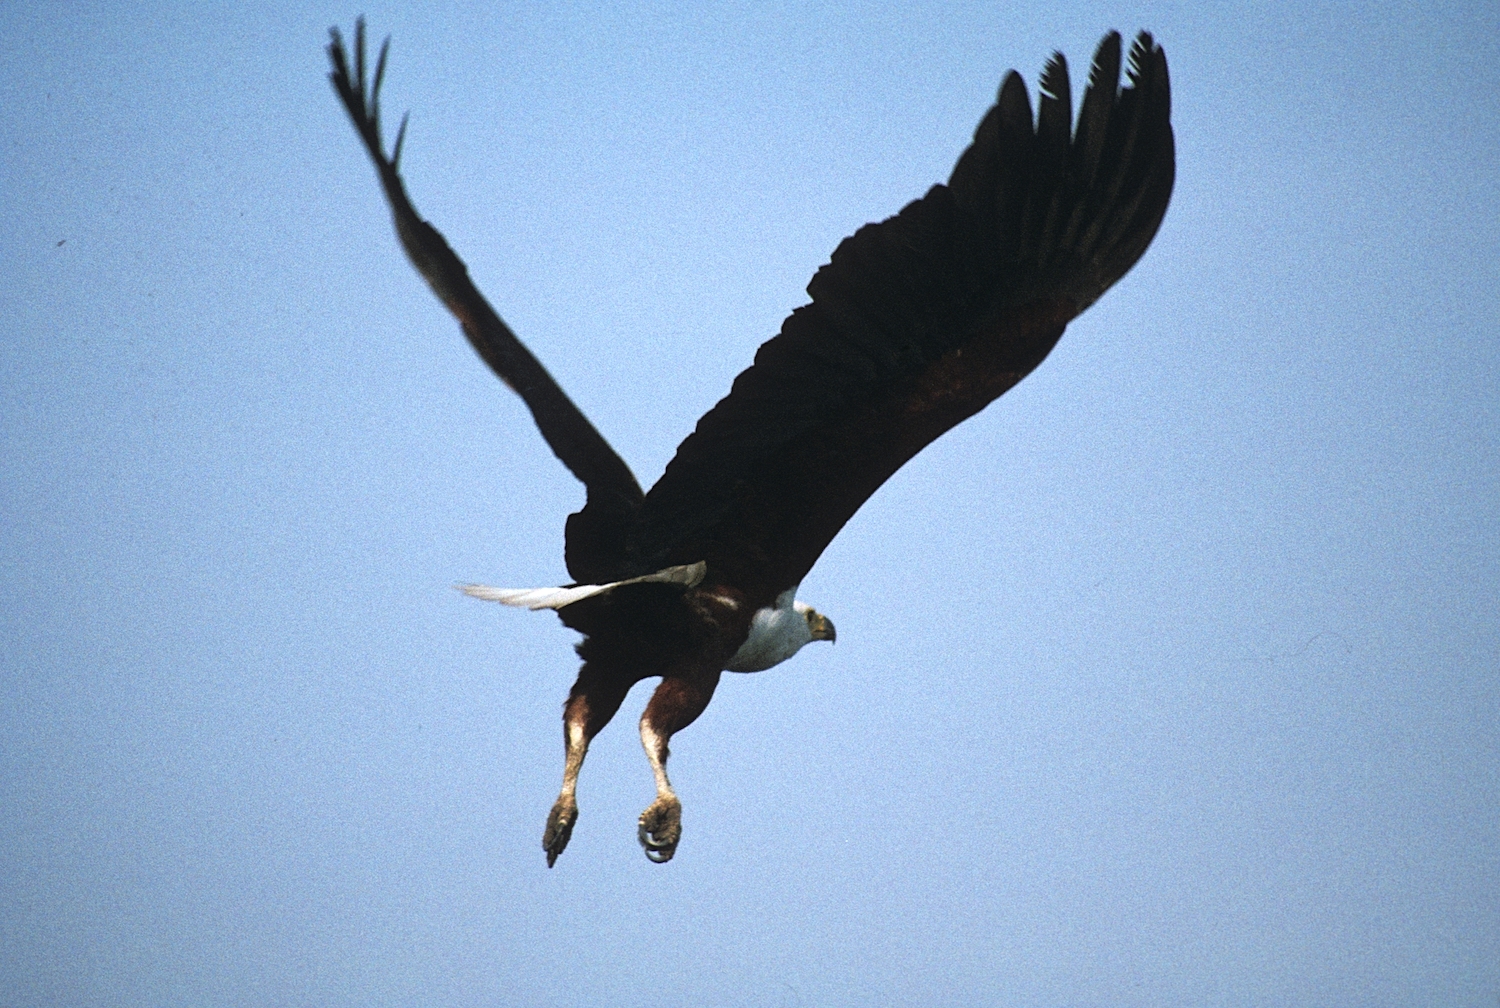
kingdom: Animalia
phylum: Chordata
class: Aves
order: Accipitriformes
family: Accipitridae
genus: Haliaeetus
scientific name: Haliaeetus vocifer
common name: African fish eagle
